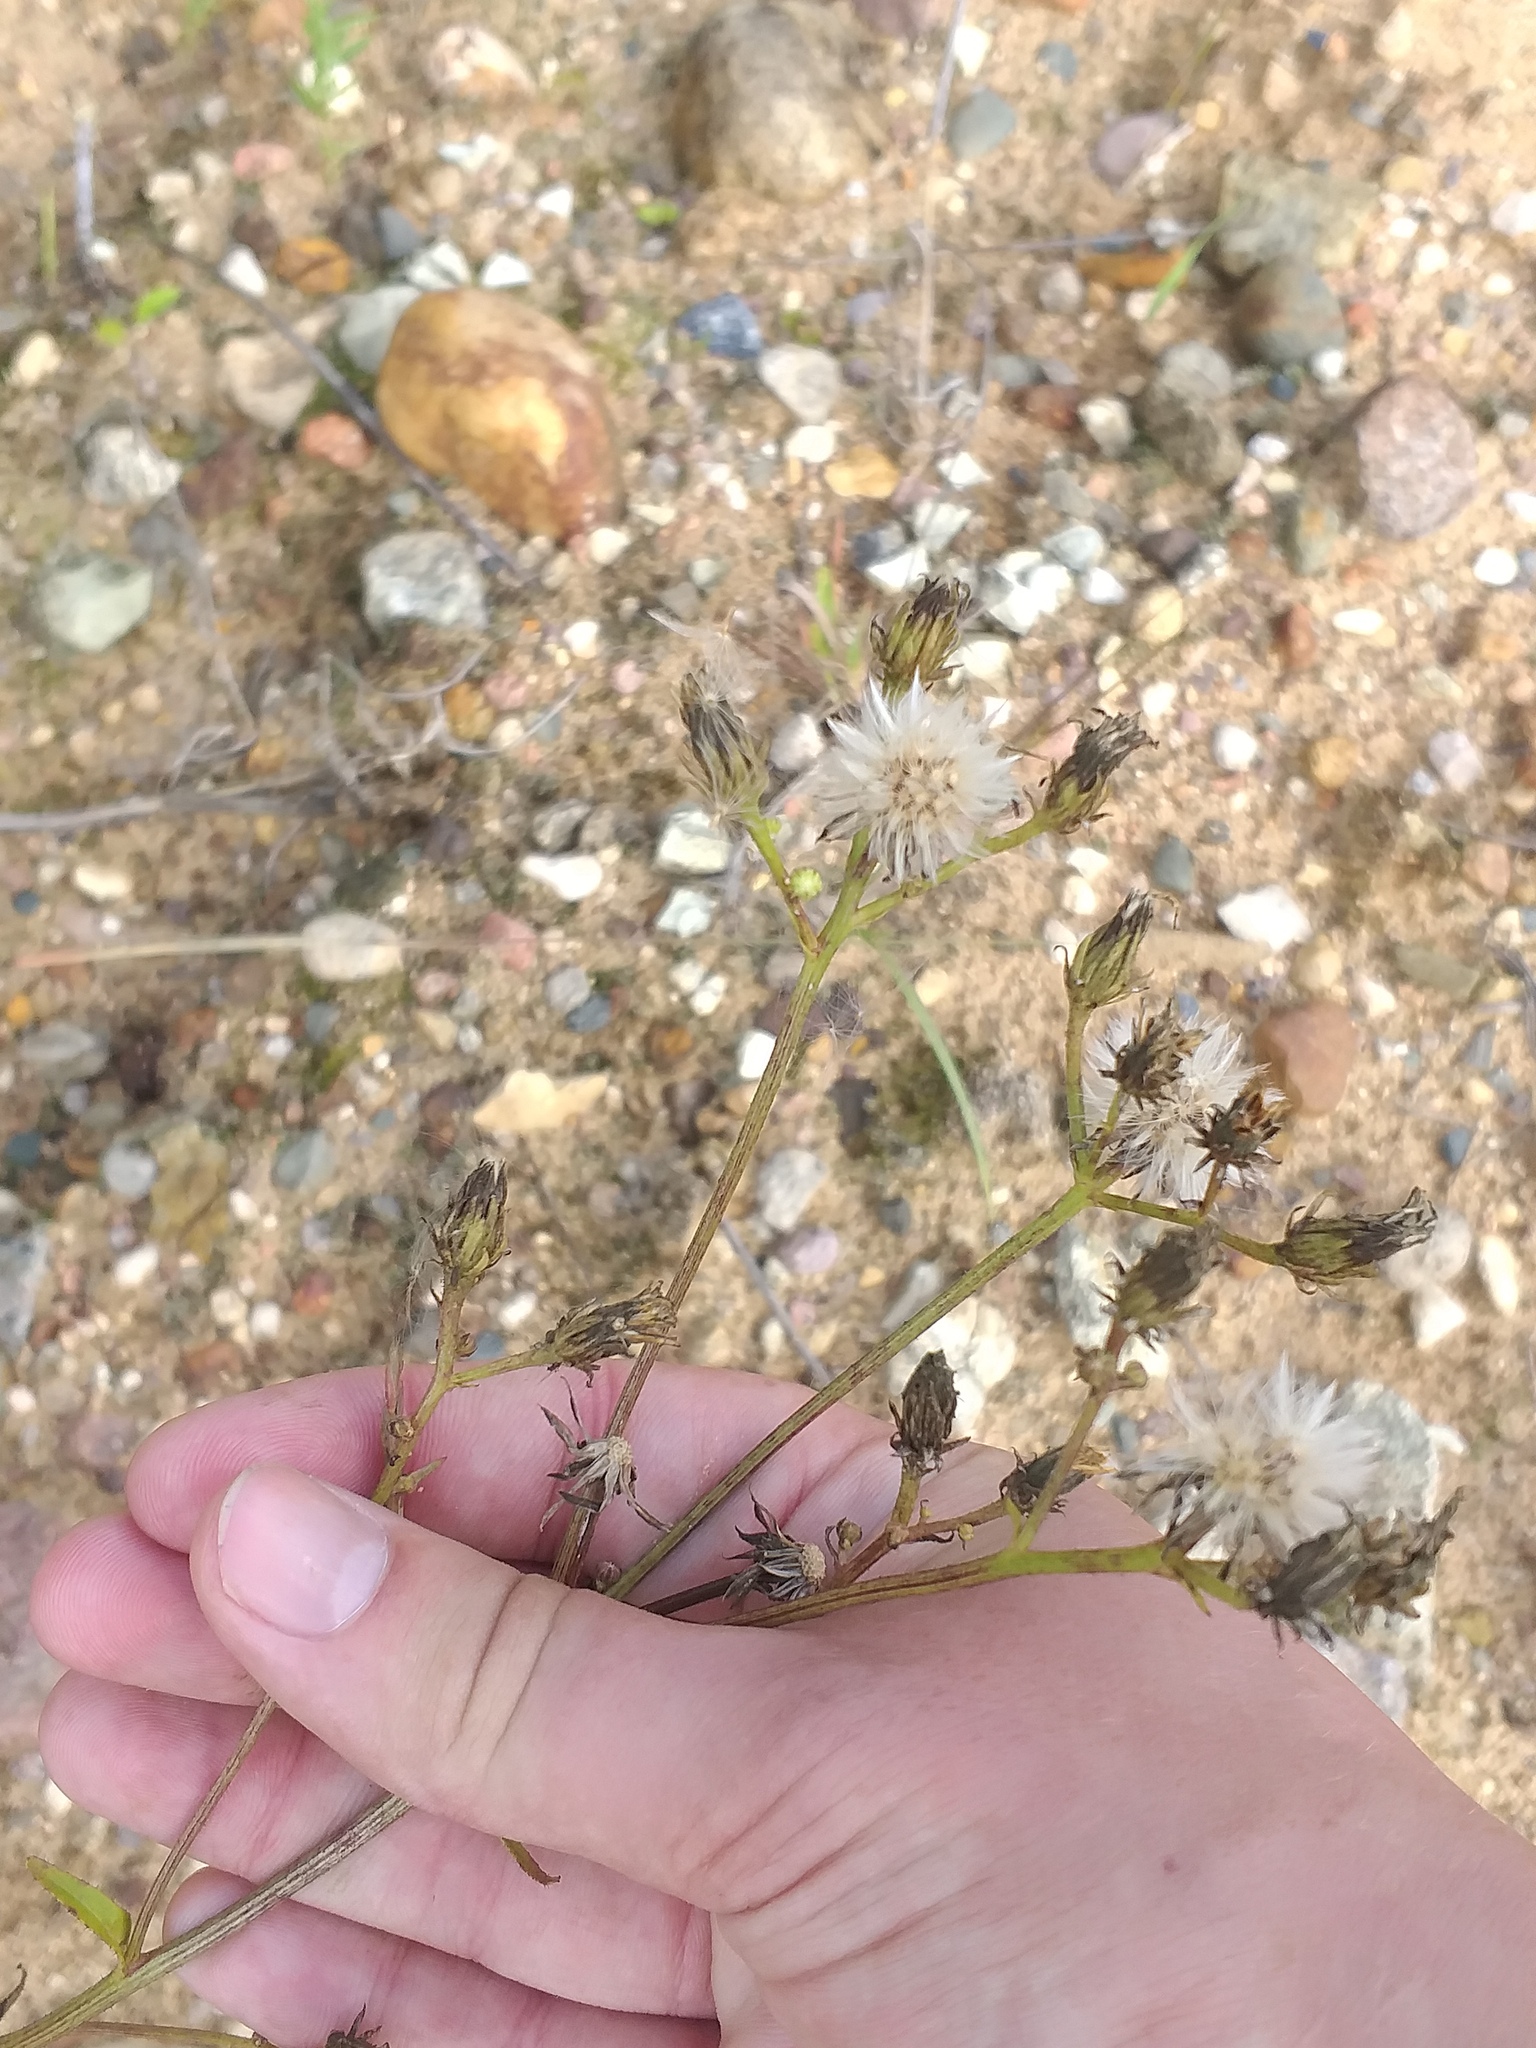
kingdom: Plantae
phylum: Tracheophyta
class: Magnoliopsida
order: Asterales
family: Asteraceae
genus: Picris
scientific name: Picris hieracioides
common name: Hawkweed oxtongue
